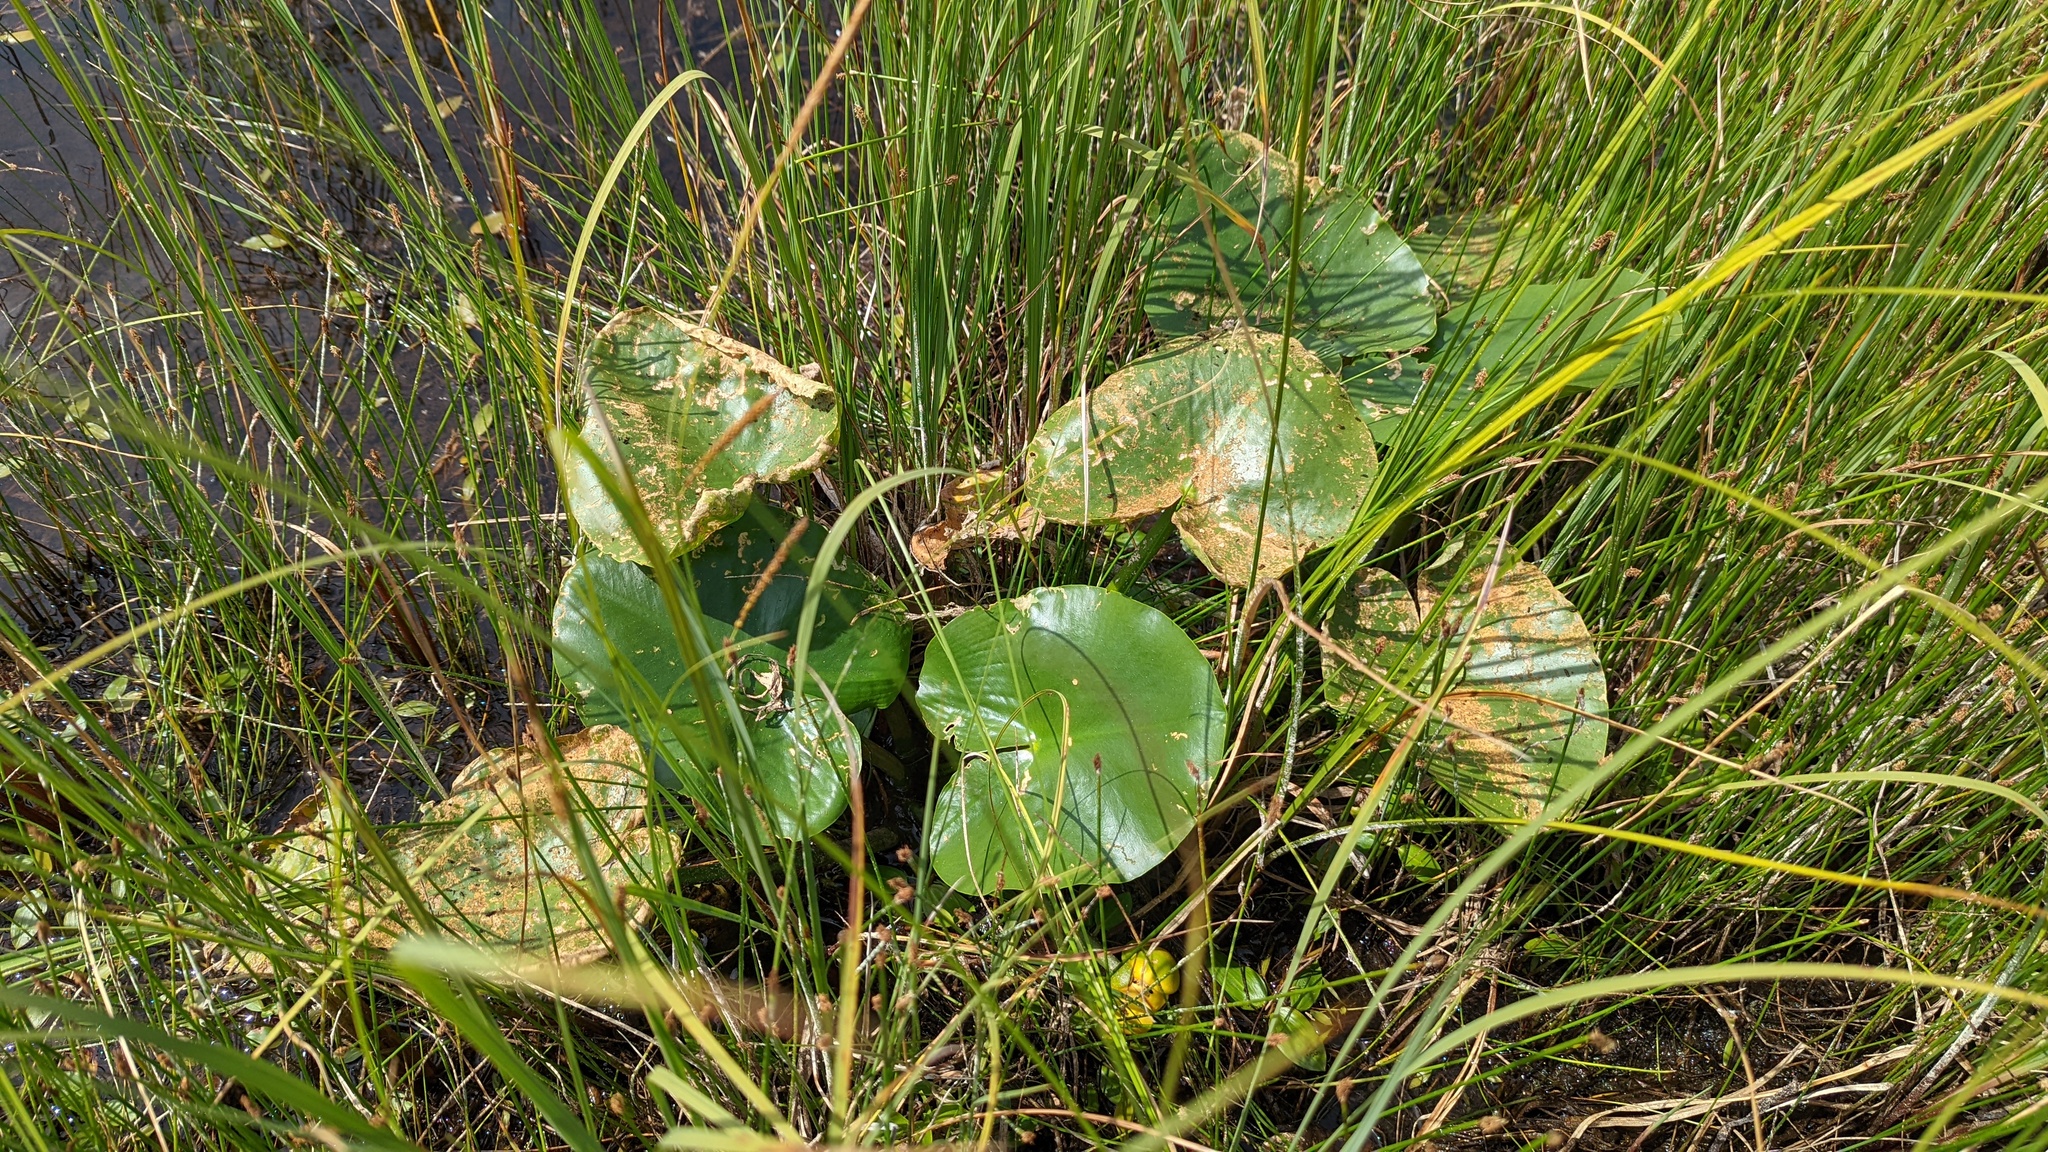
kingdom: Plantae
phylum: Tracheophyta
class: Magnoliopsida
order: Nymphaeales
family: Nymphaeaceae
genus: Nuphar
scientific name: Nuphar polysepala
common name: Rocky mountain cow-lily
